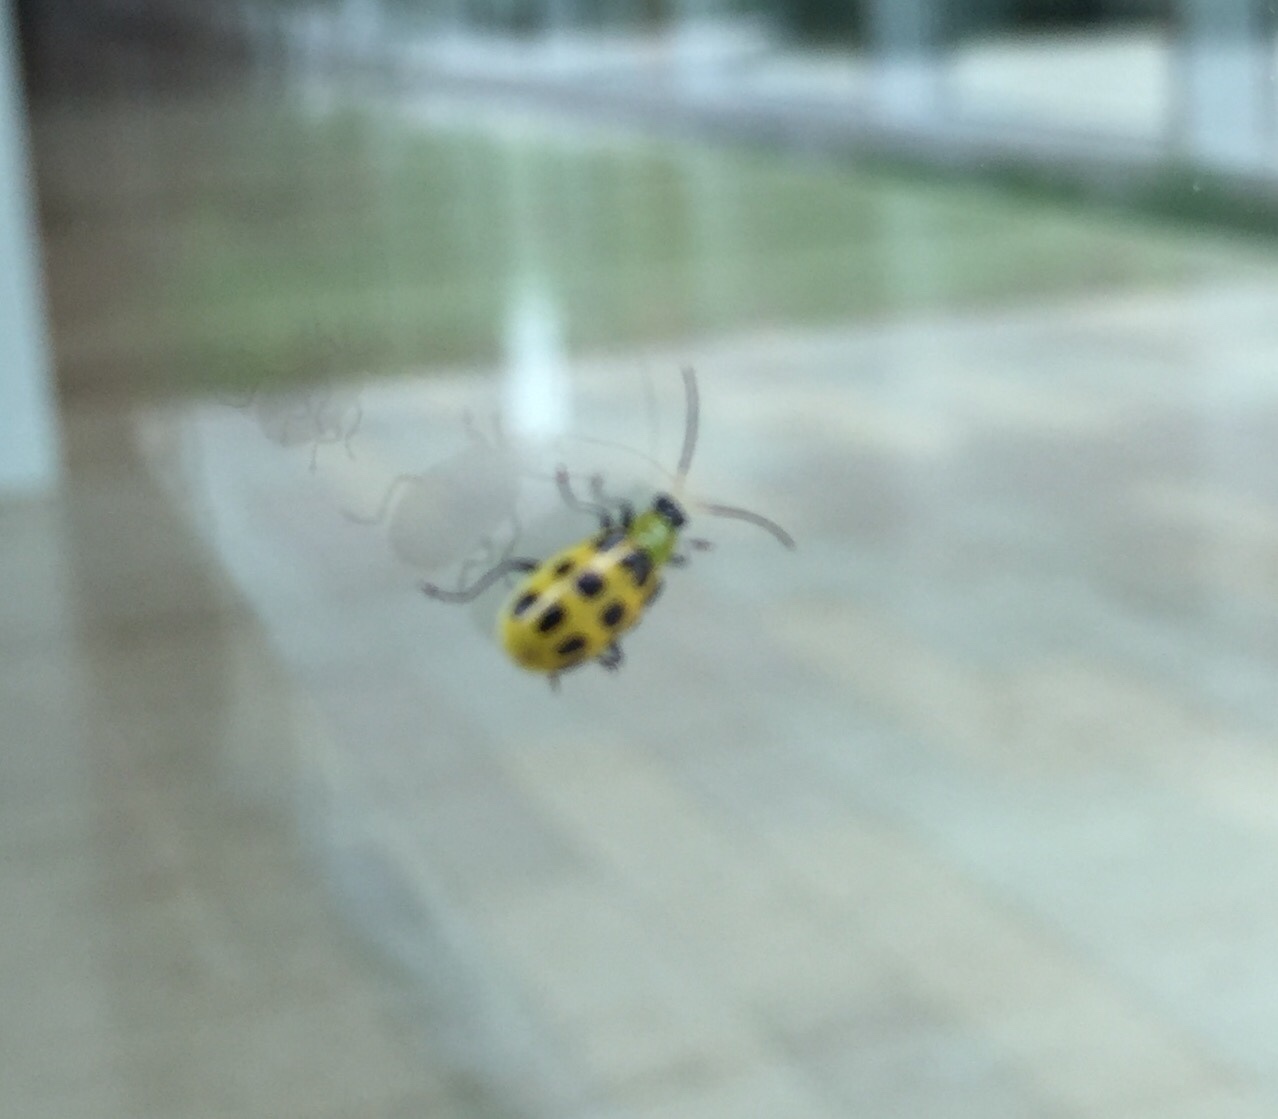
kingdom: Animalia
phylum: Arthropoda
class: Insecta
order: Coleoptera
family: Chrysomelidae
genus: Diabrotica
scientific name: Diabrotica undecimpunctata
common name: Spotted cucumber beetle
